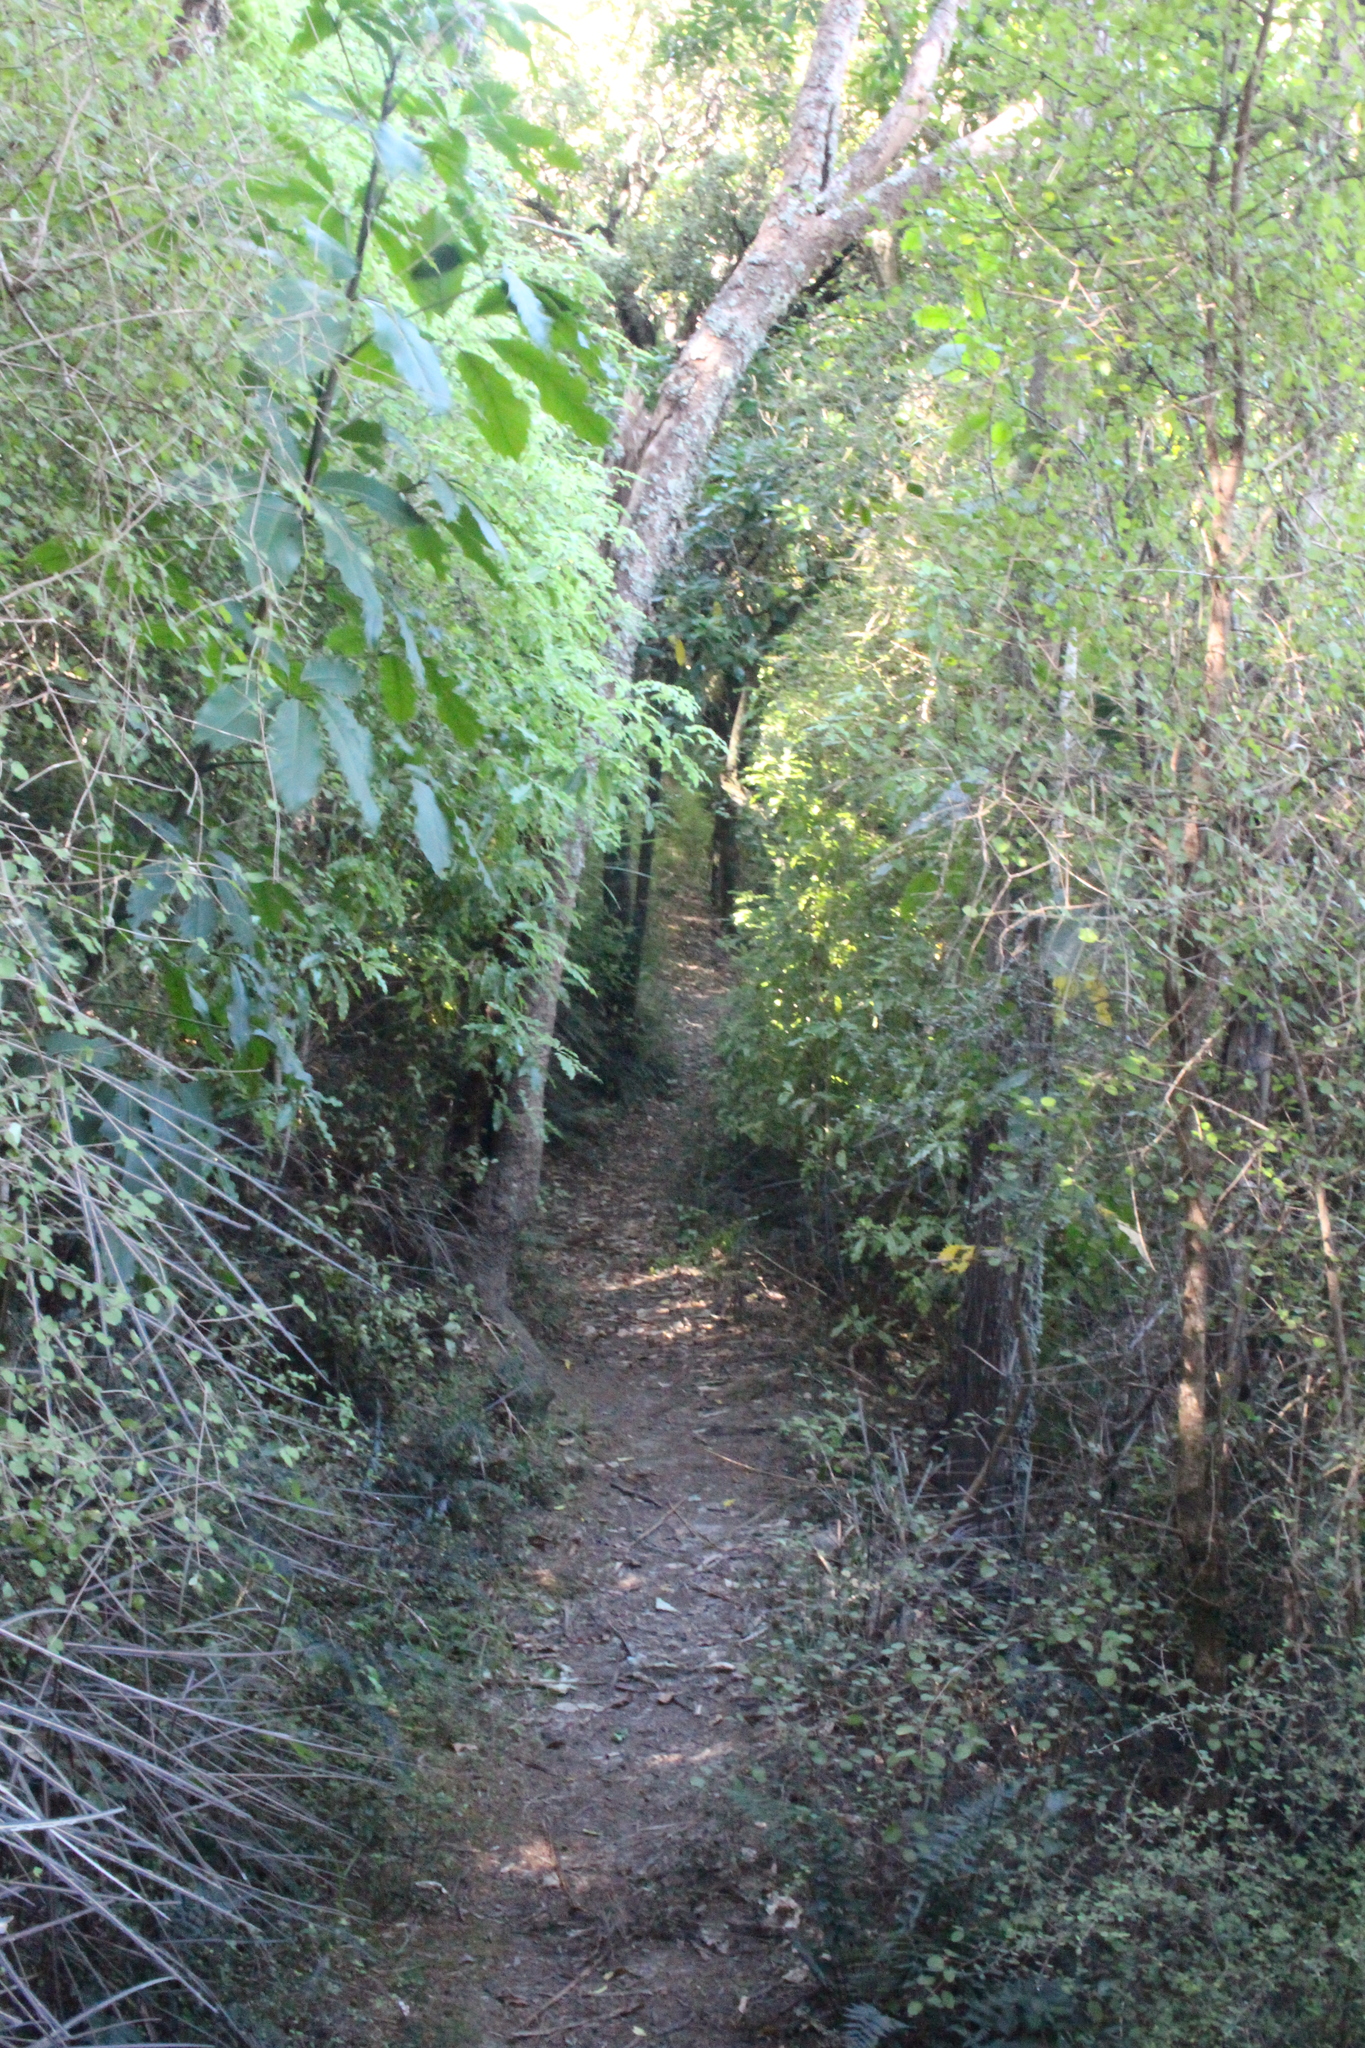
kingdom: Plantae
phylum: Tracheophyta
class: Magnoliopsida
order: Gentianales
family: Rubiaceae
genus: Coprosma
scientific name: Coprosma rhamnoides
